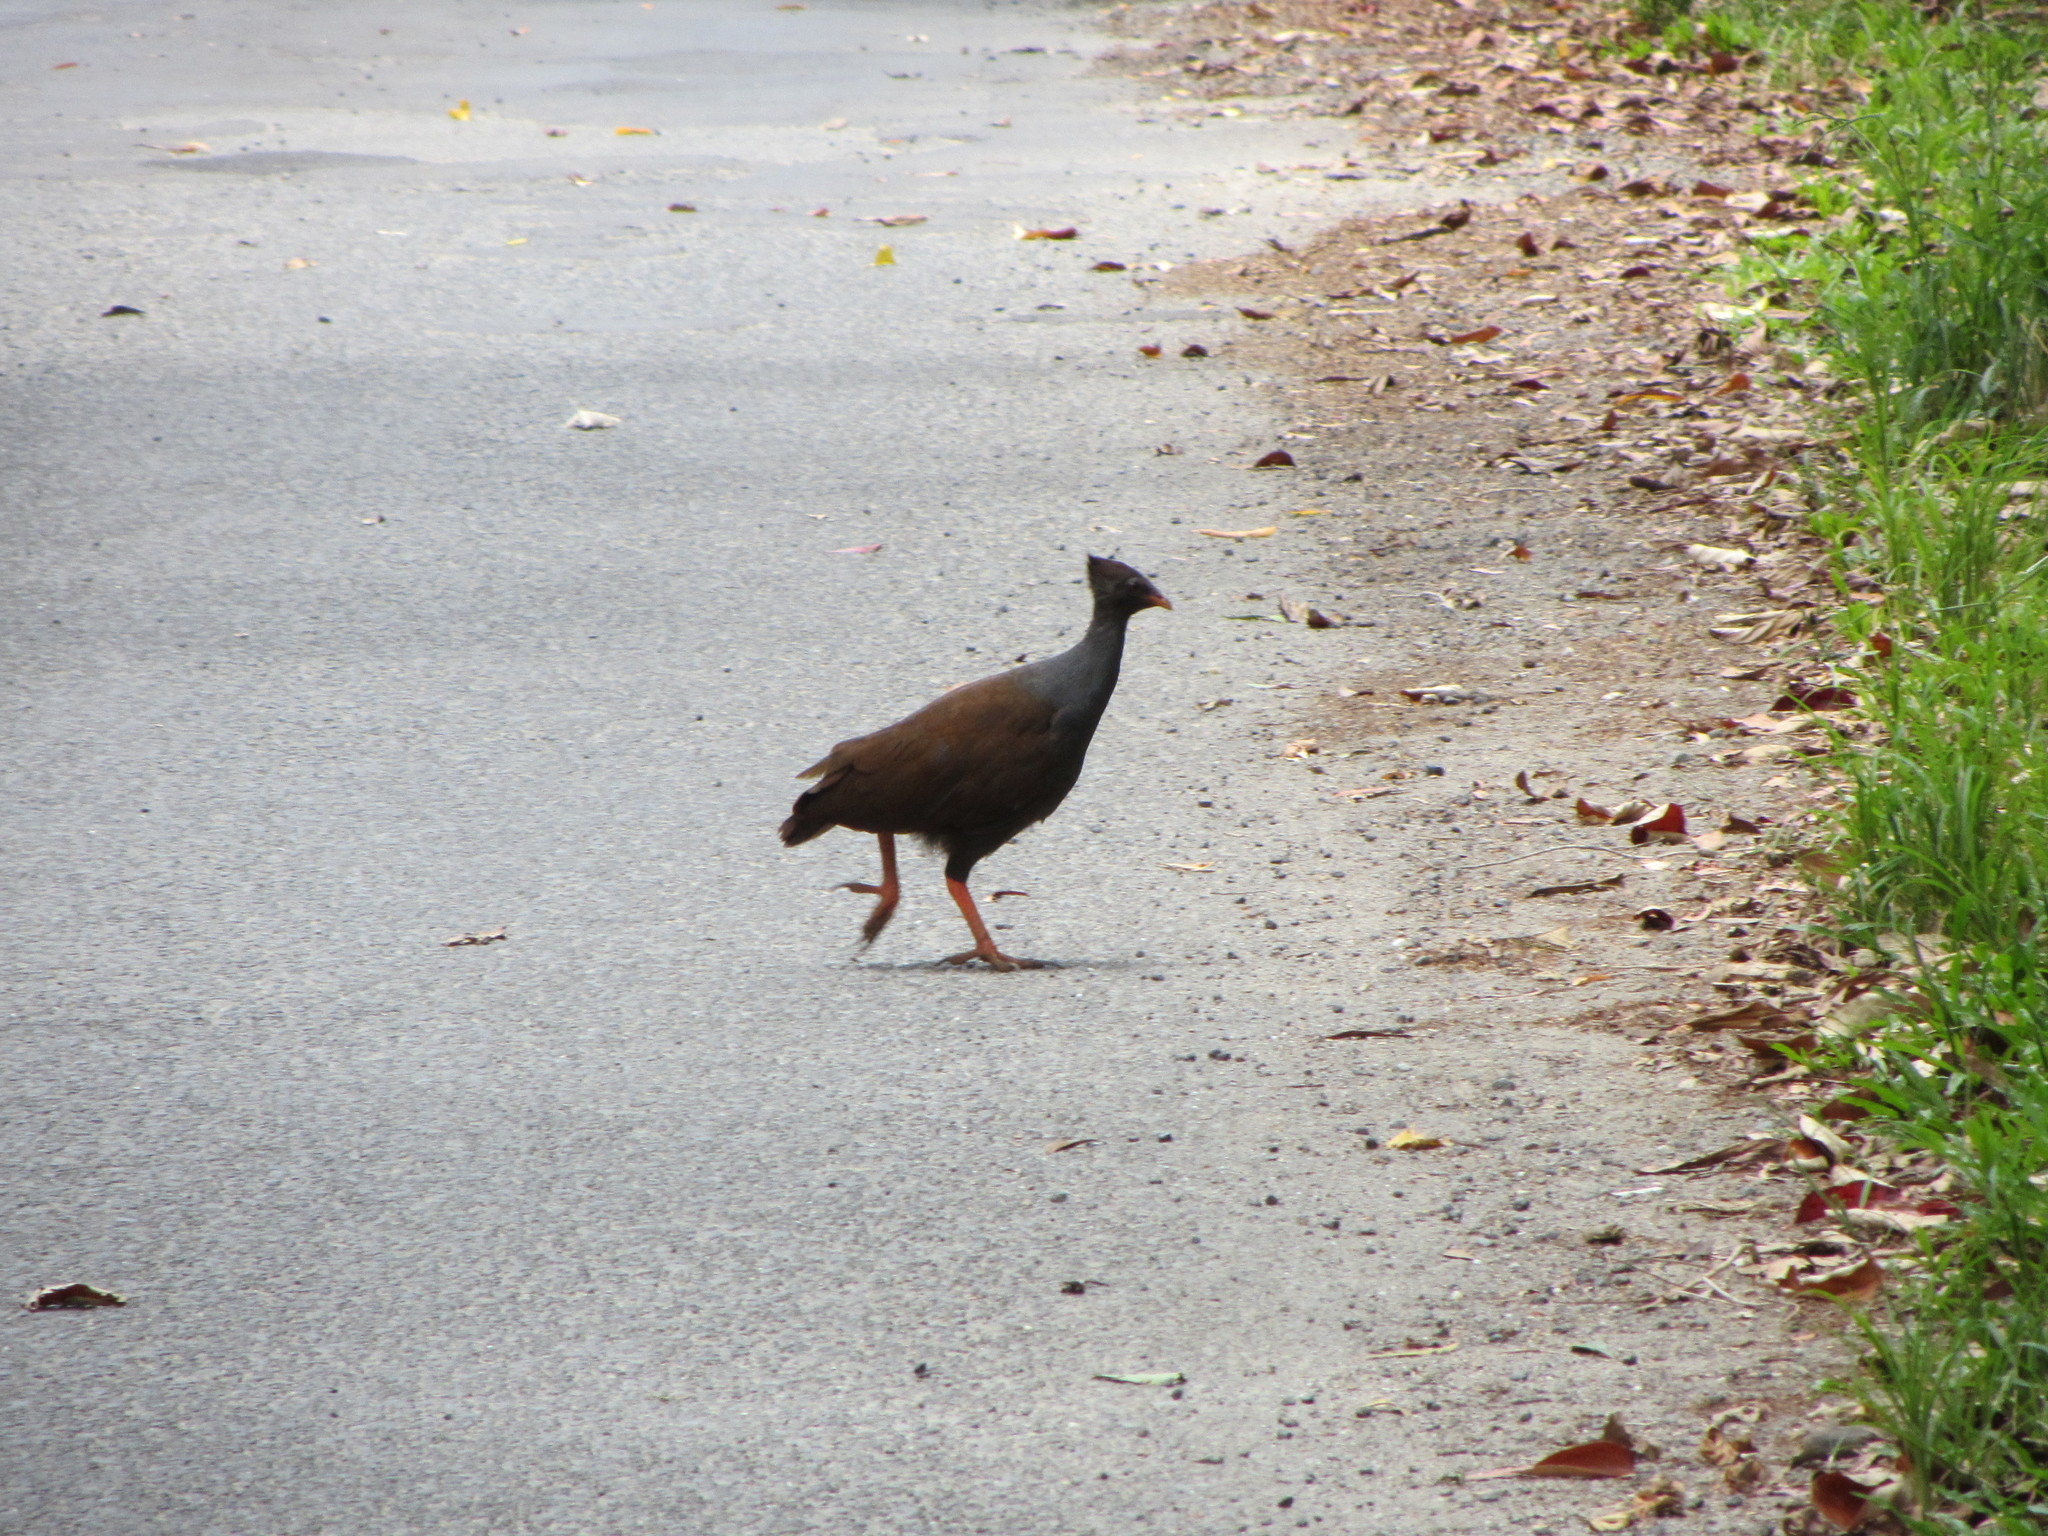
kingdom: Animalia
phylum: Chordata
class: Aves
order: Galliformes
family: Megapodiidae
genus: Megapodius
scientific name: Megapodius reinwardt
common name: Orange-footed scrubfowl
